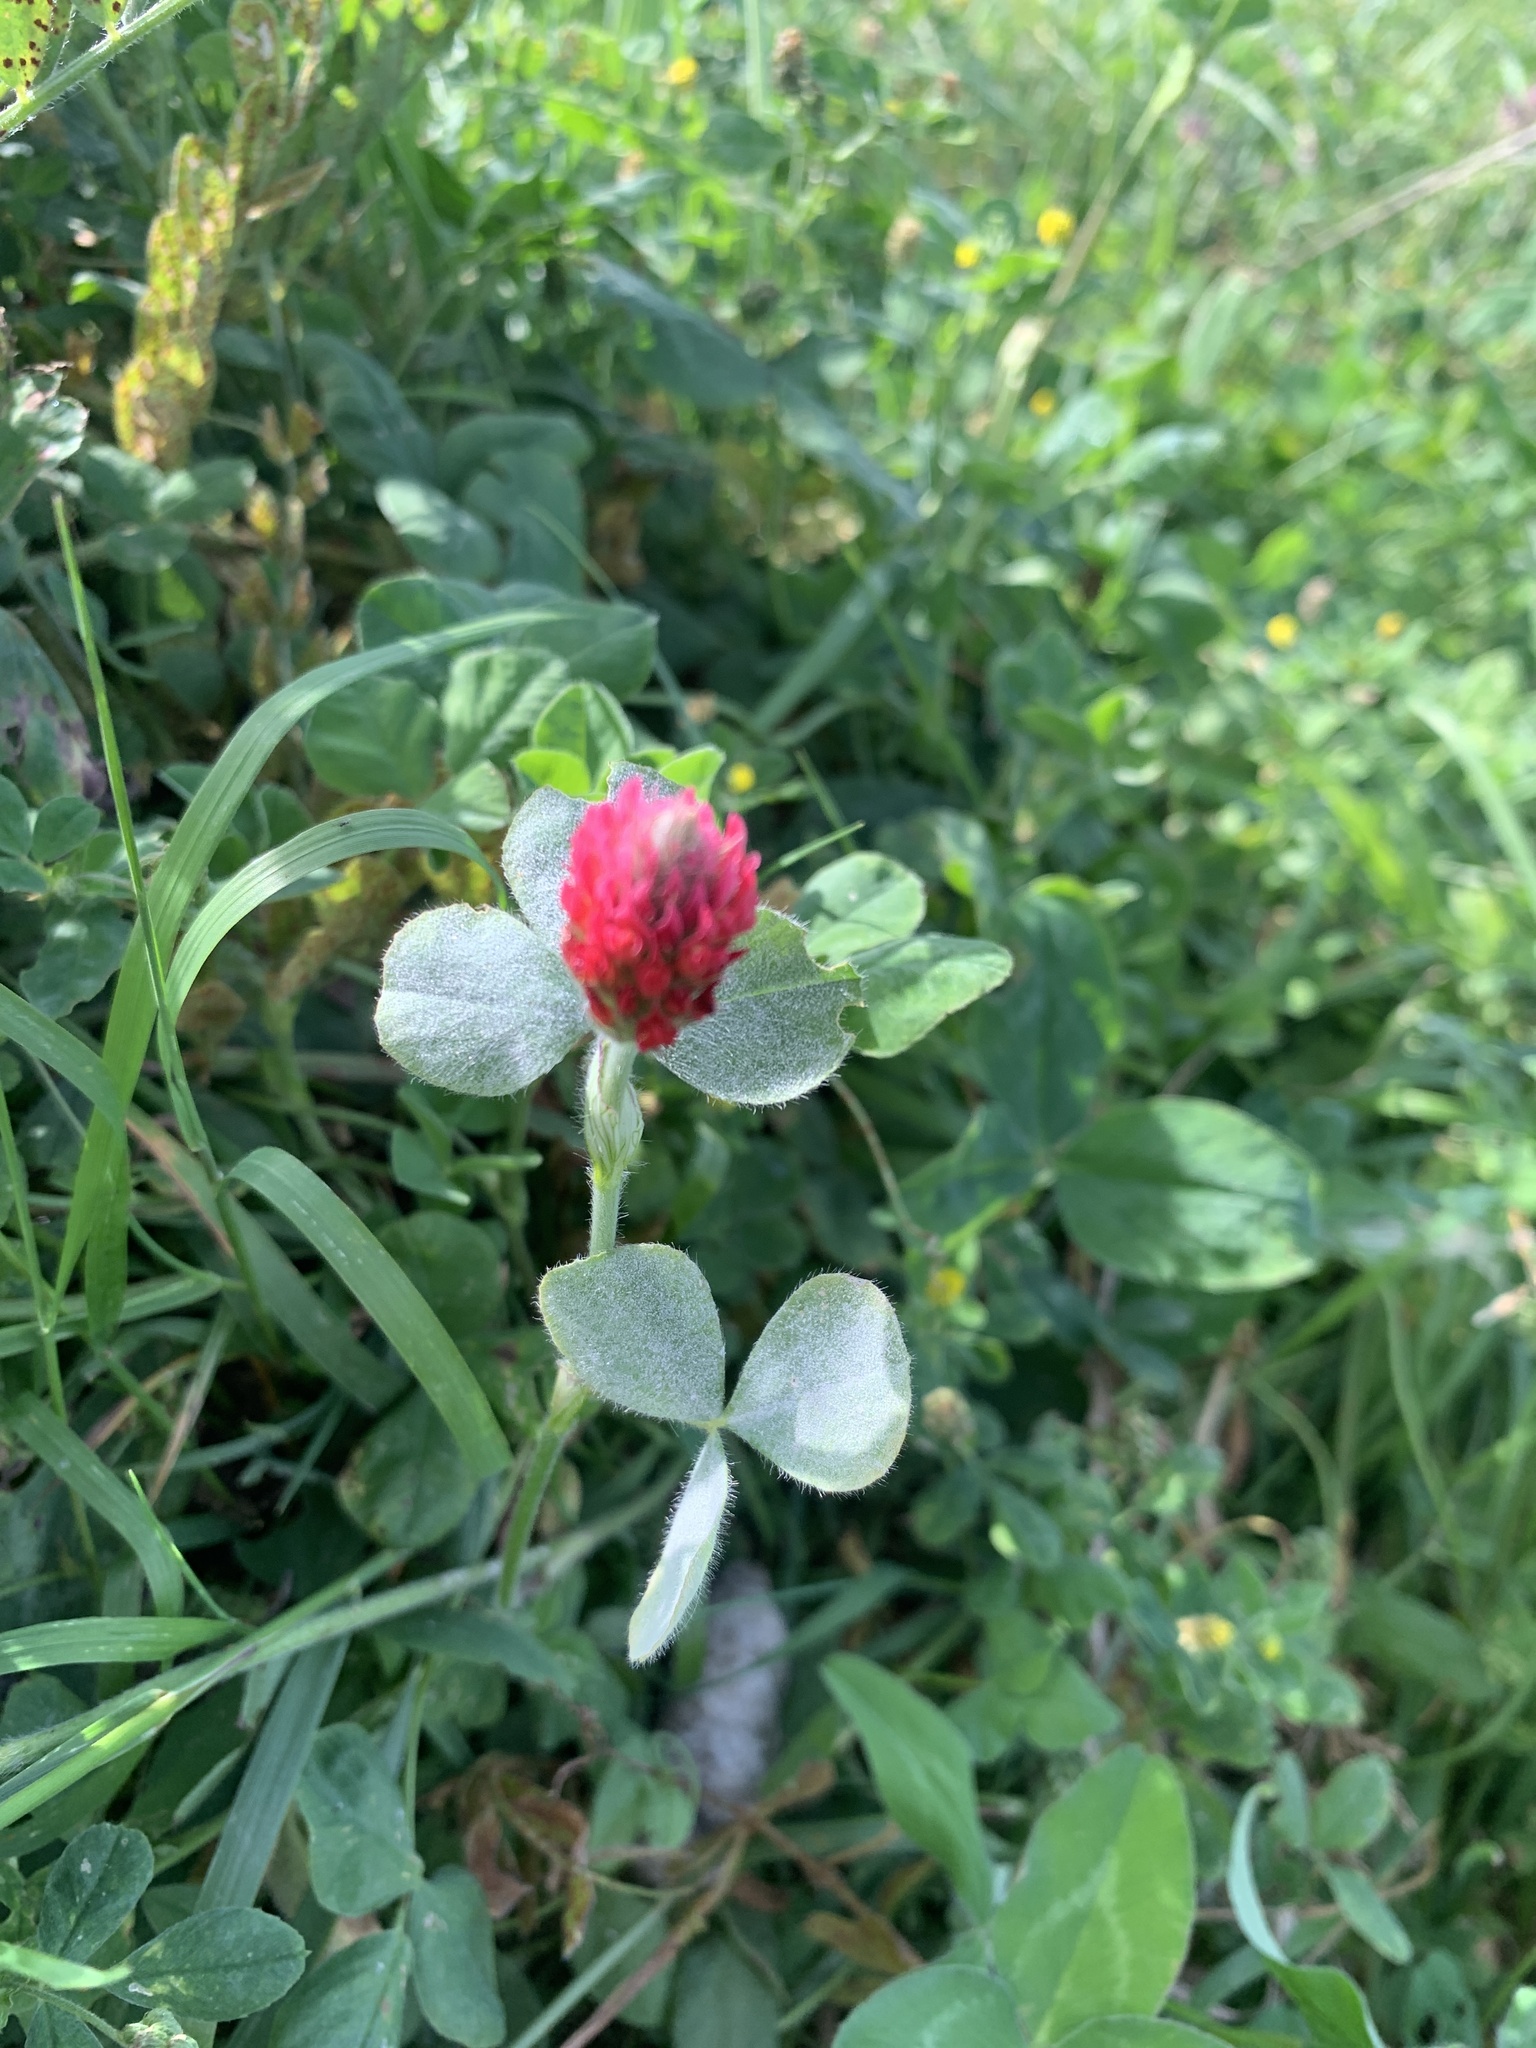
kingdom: Plantae
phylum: Tracheophyta
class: Magnoliopsida
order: Fabales
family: Fabaceae
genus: Trifolium
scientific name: Trifolium incarnatum
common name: Crimson clover
